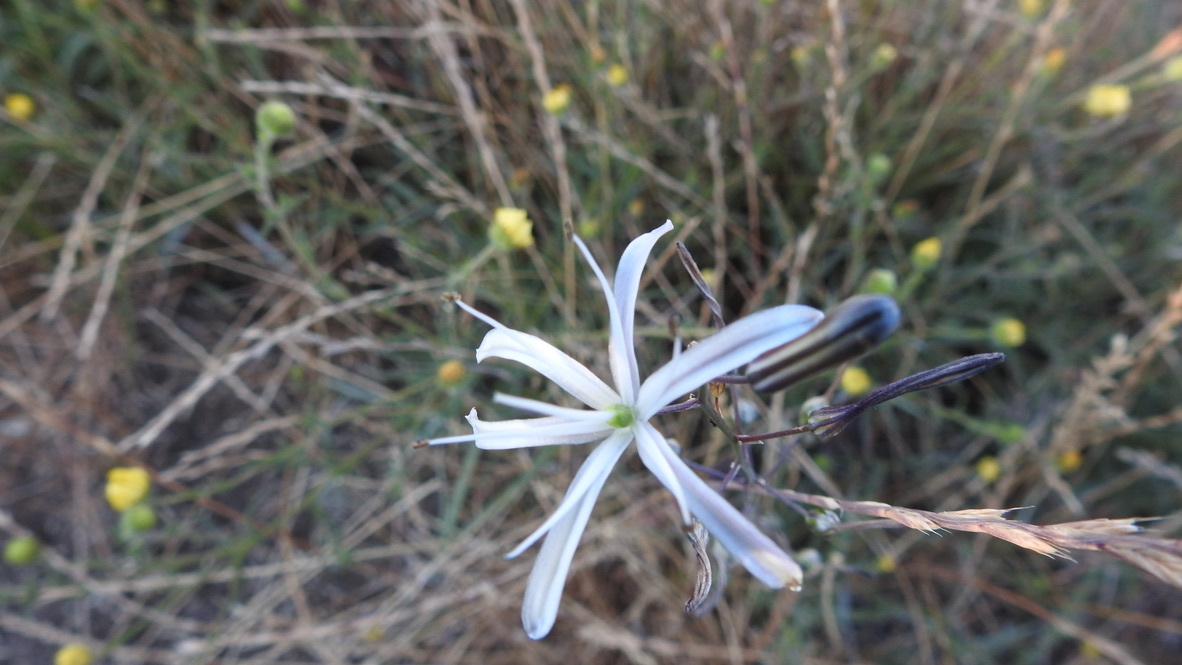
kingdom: Plantae
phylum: Tracheophyta
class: Liliopsida
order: Asparagales
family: Asparagaceae
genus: Chlorogalum
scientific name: Chlorogalum pomeridianum
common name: Amole
